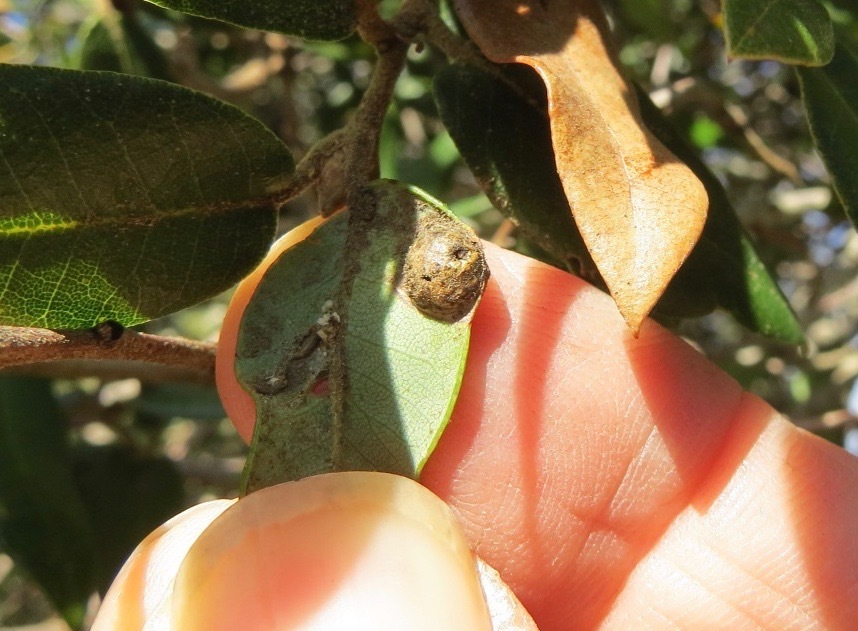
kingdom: Animalia
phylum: Arthropoda
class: Insecta
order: Hymenoptera
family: Cynipidae
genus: Heteroecus
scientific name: Heteroecus
